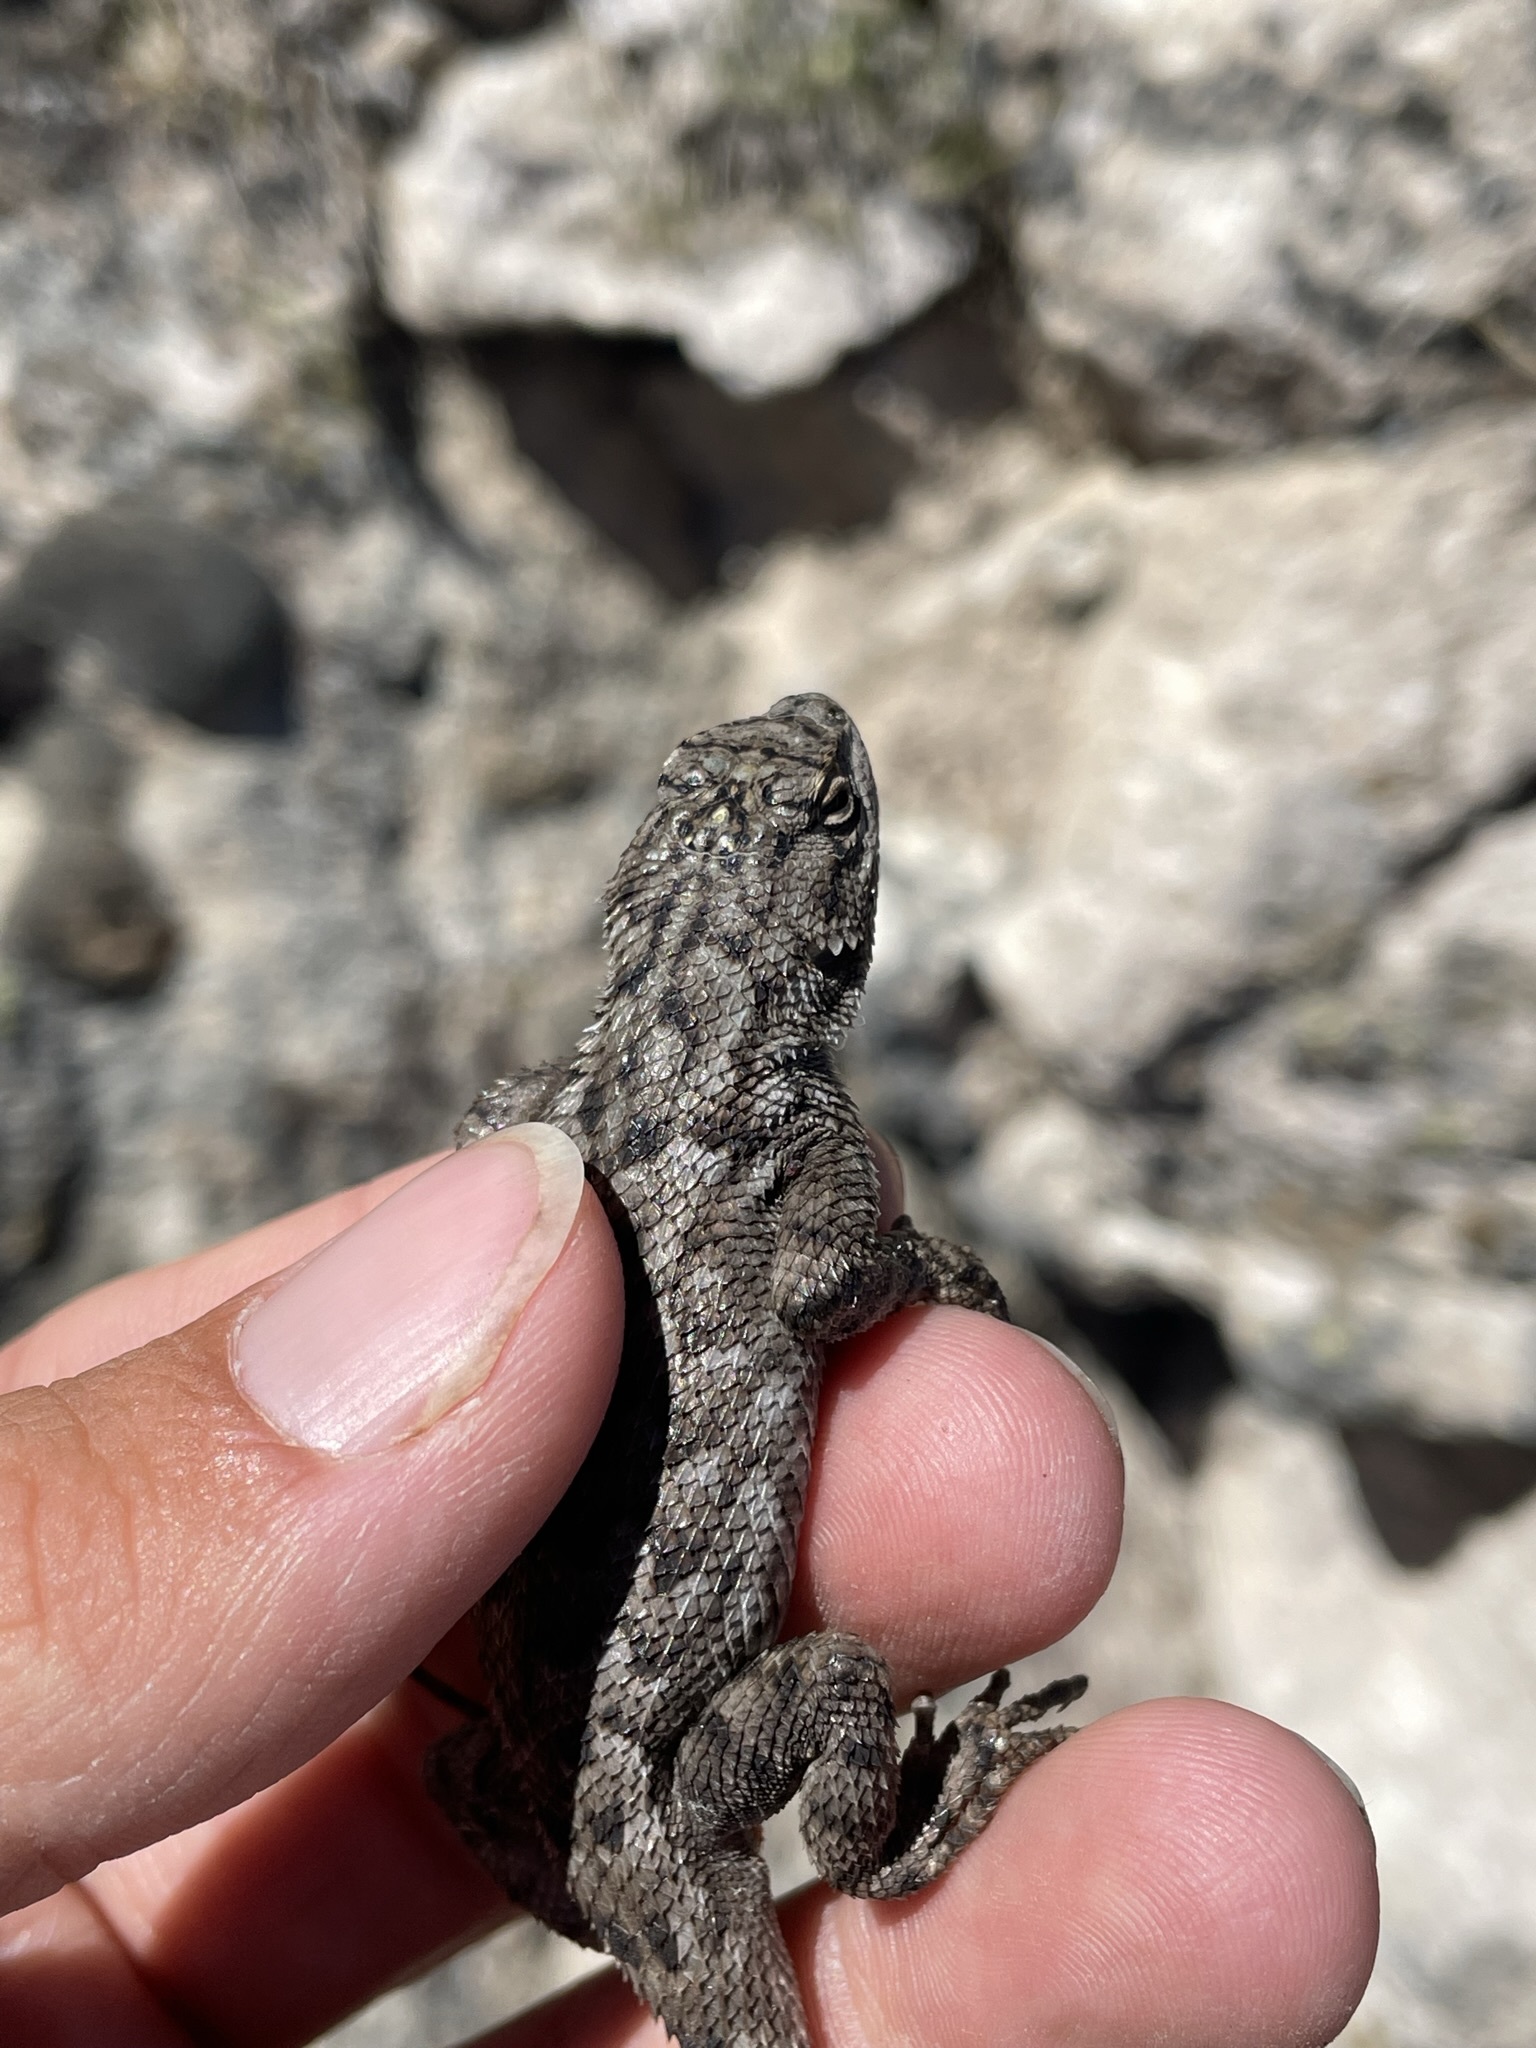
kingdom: Animalia
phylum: Chordata
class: Squamata
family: Phrynosomatidae
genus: Sceloporus
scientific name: Sceloporus occidentalis
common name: Western fence lizard
